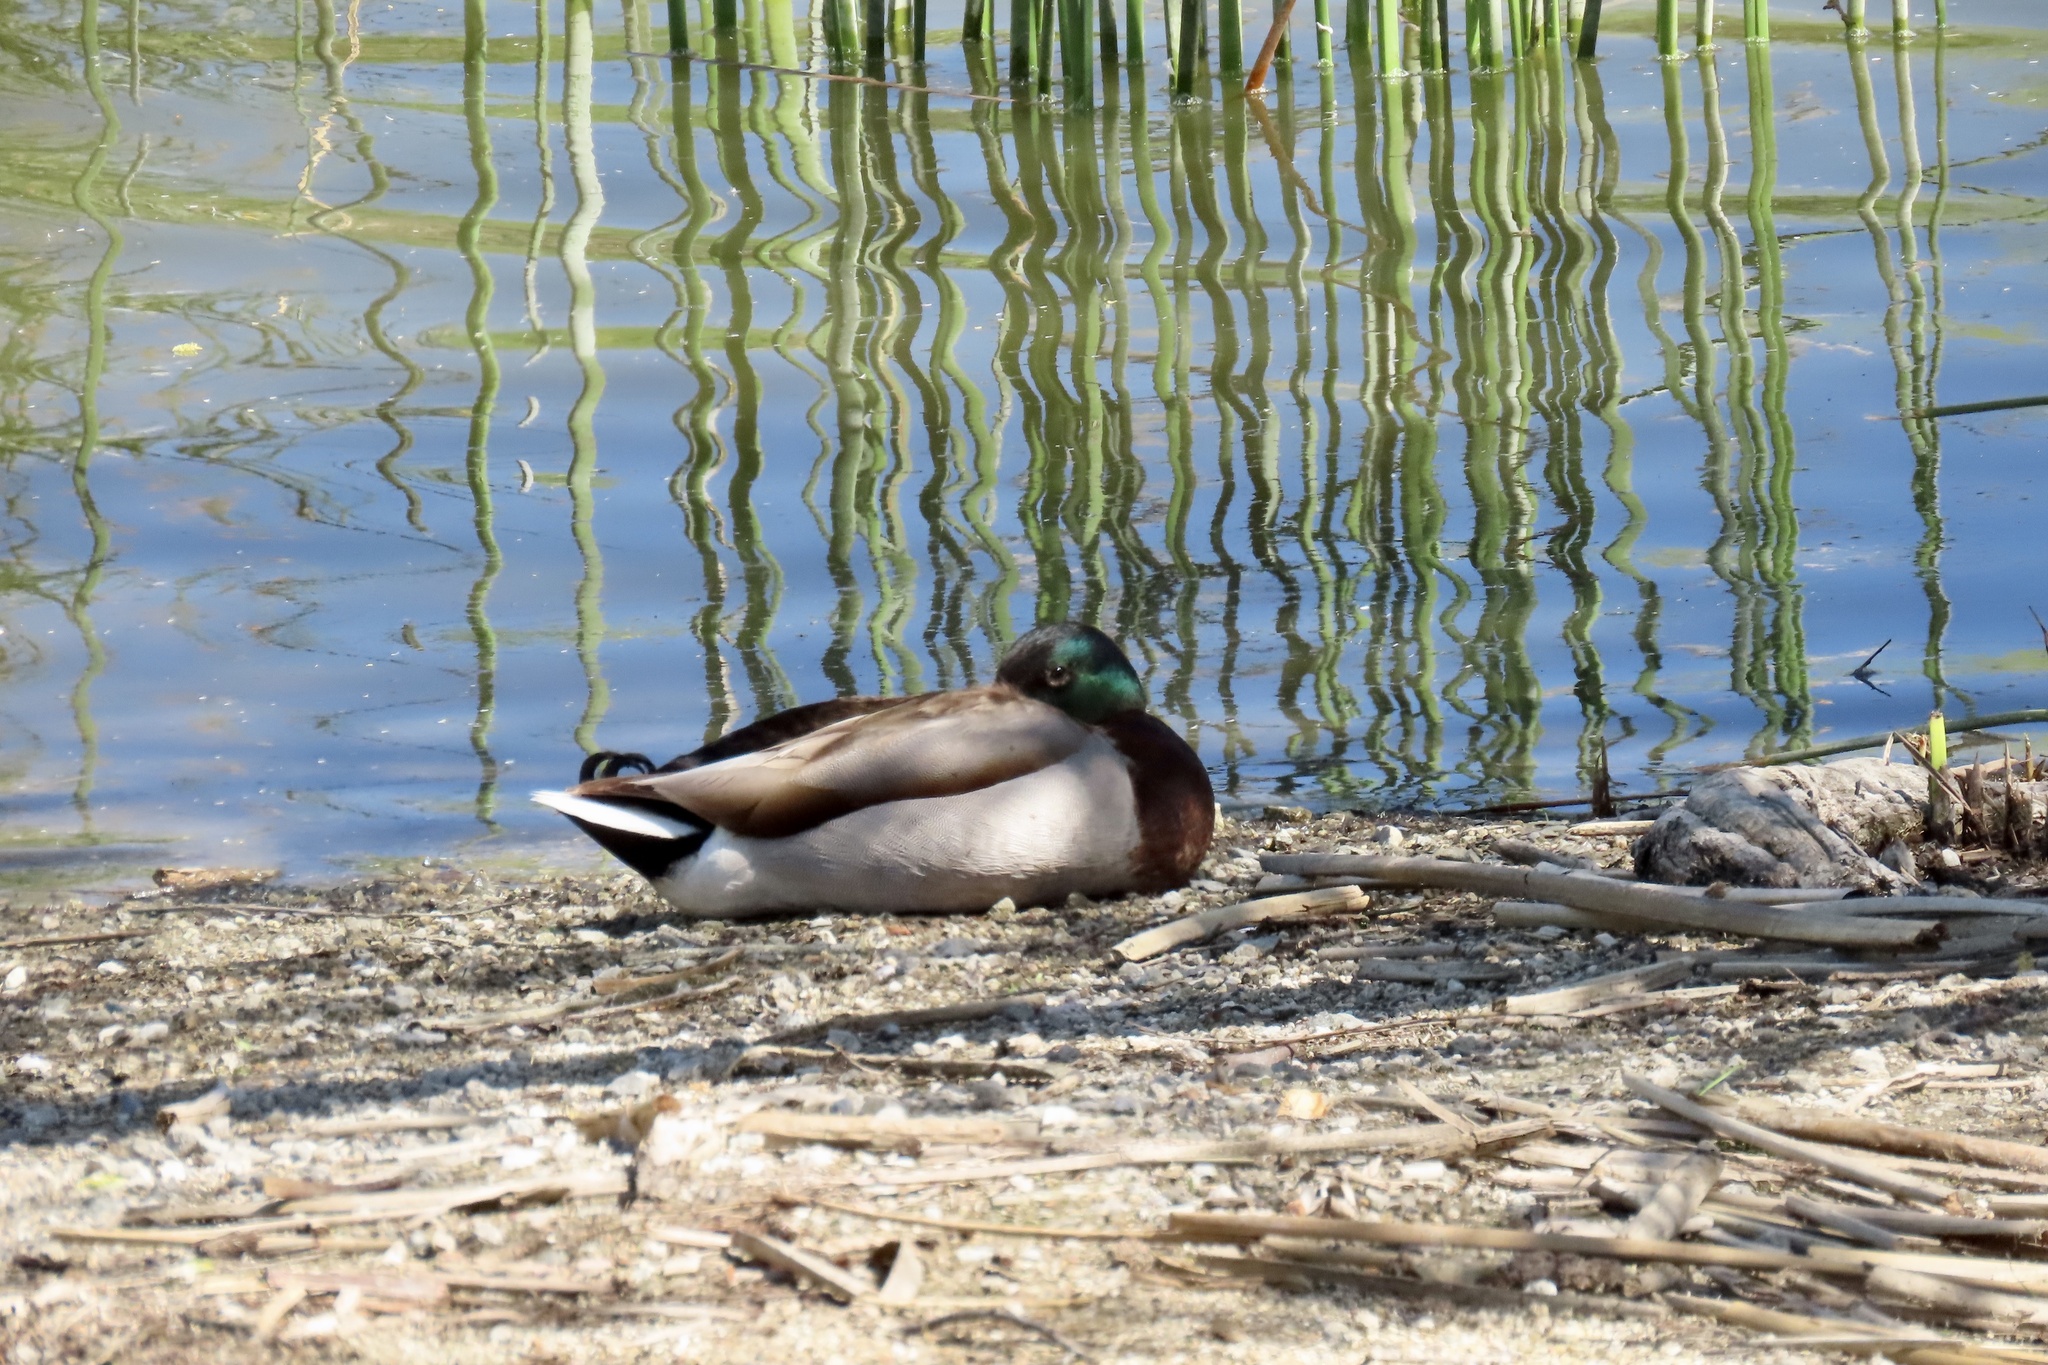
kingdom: Animalia
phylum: Chordata
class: Aves
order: Anseriformes
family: Anatidae
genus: Anas
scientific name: Anas platyrhynchos
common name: Mallard
